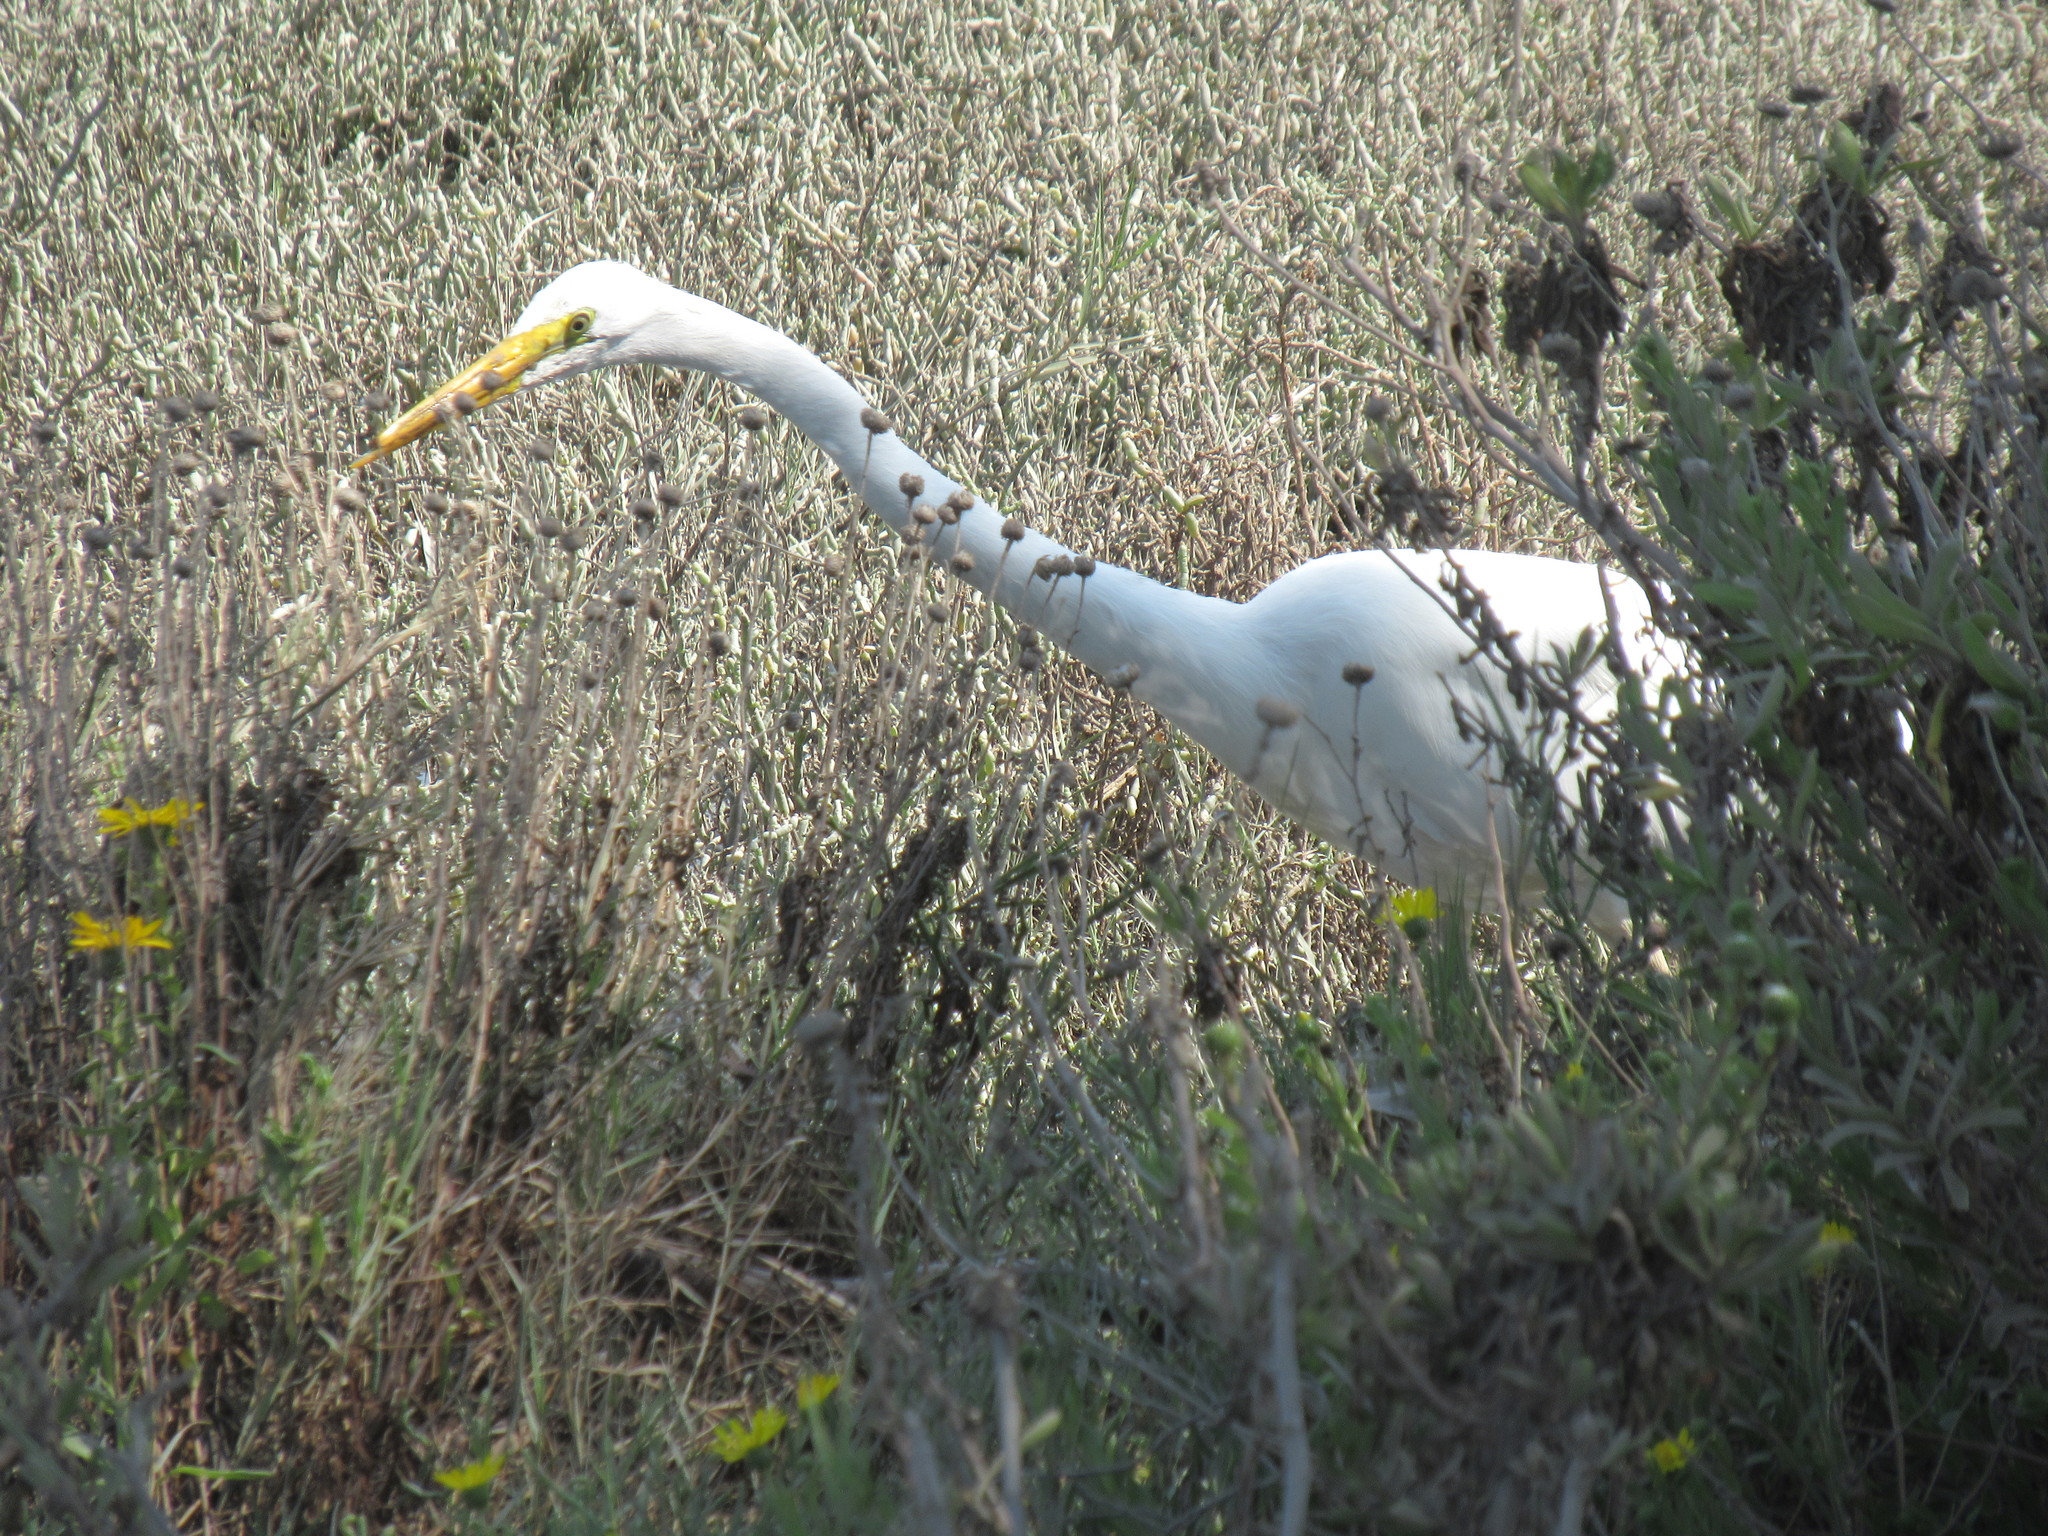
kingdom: Animalia
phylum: Chordata
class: Aves
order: Pelecaniformes
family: Ardeidae
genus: Ardea
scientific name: Ardea alba
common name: Great egret
